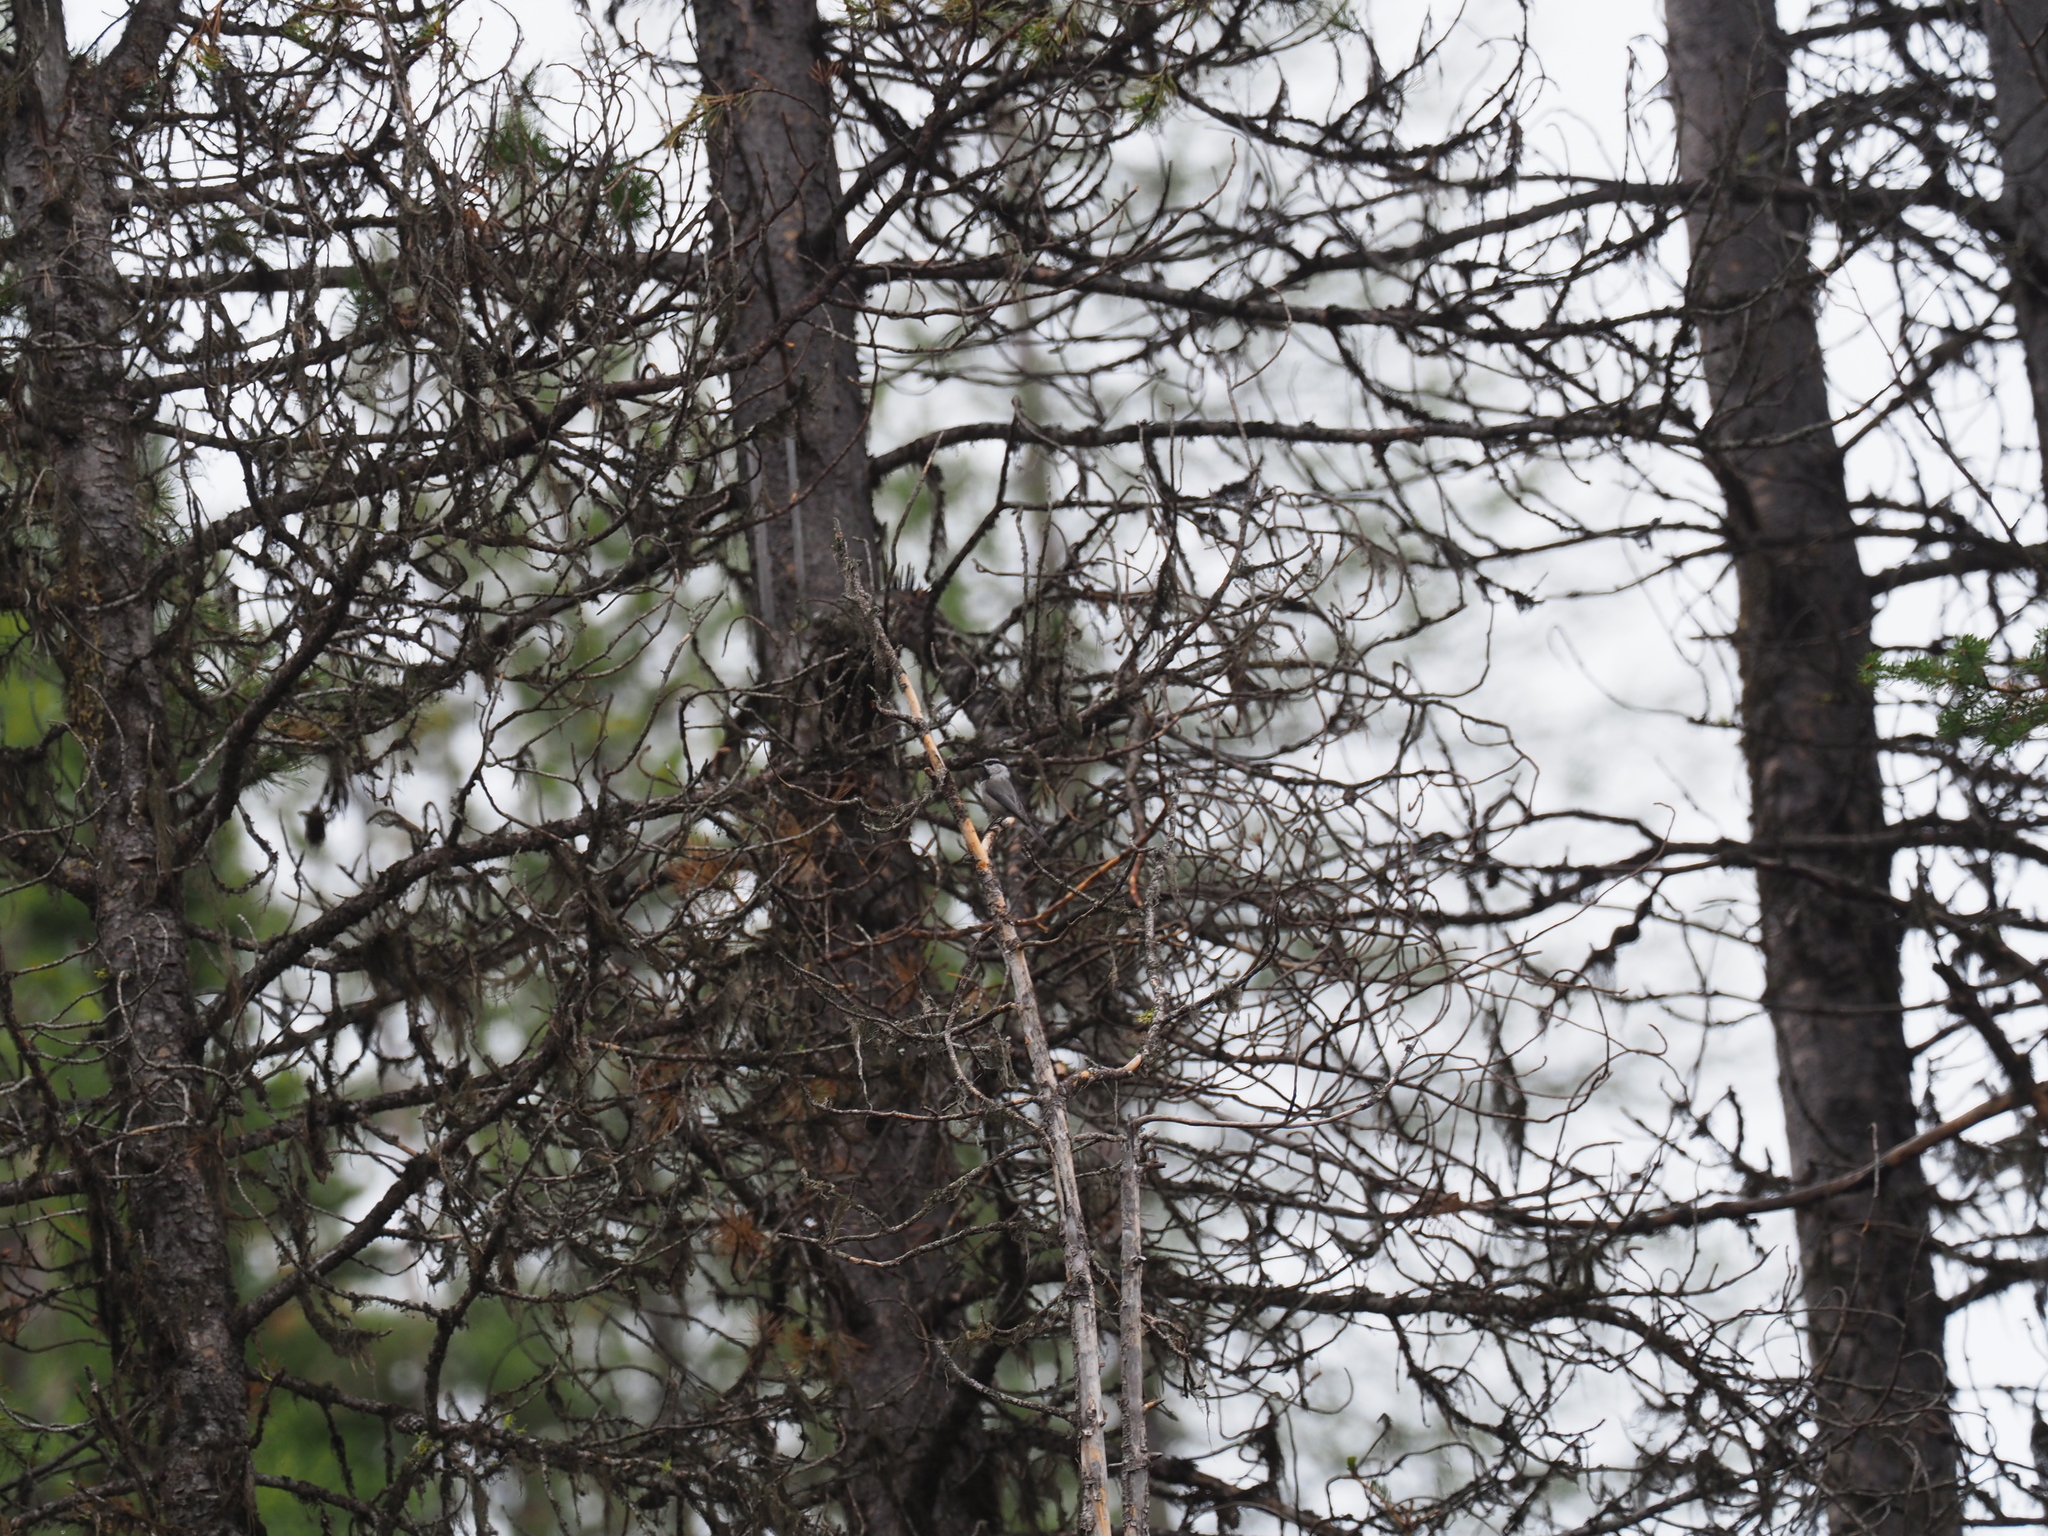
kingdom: Animalia
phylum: Chordata
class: Aves
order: Passeriformes
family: Paridae
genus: Poecile
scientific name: Poecile gambeli
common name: Mountain chickadee
